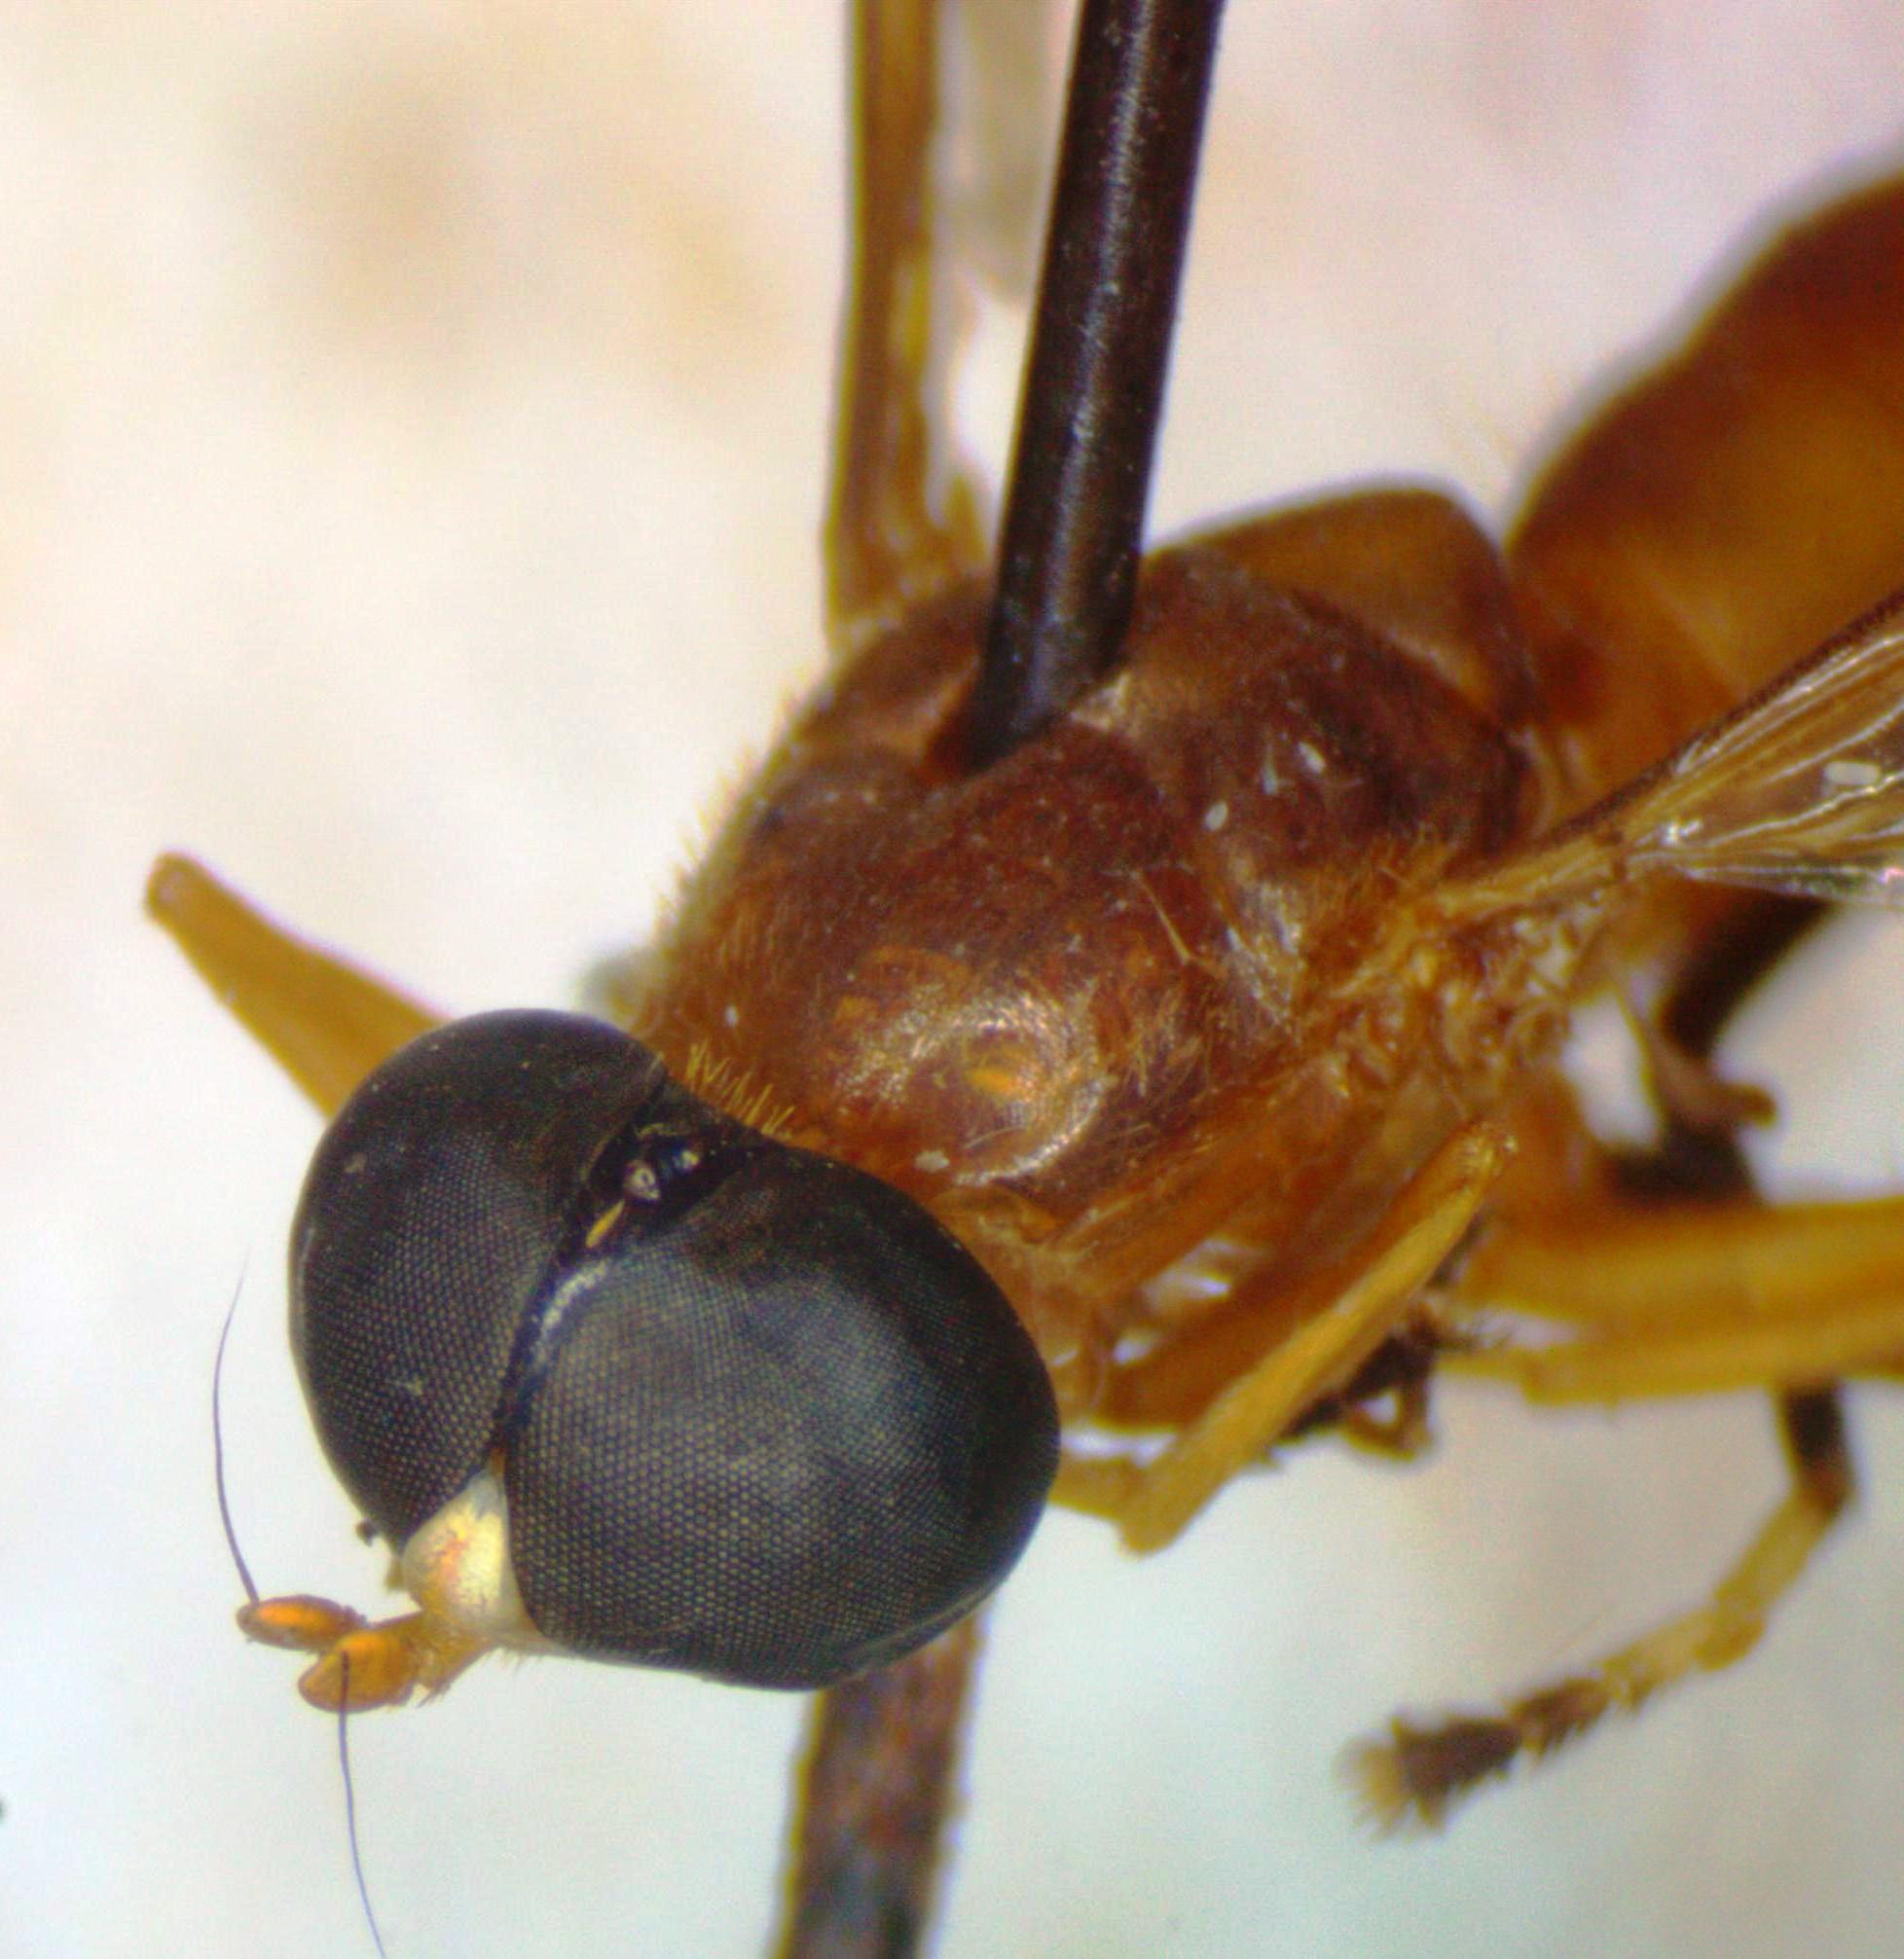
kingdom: Animalia
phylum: Arthropoda
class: Insecta
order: Diptera
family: Stratiomyidae
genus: Ptecticus
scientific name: Ptecticus nigrifrons
